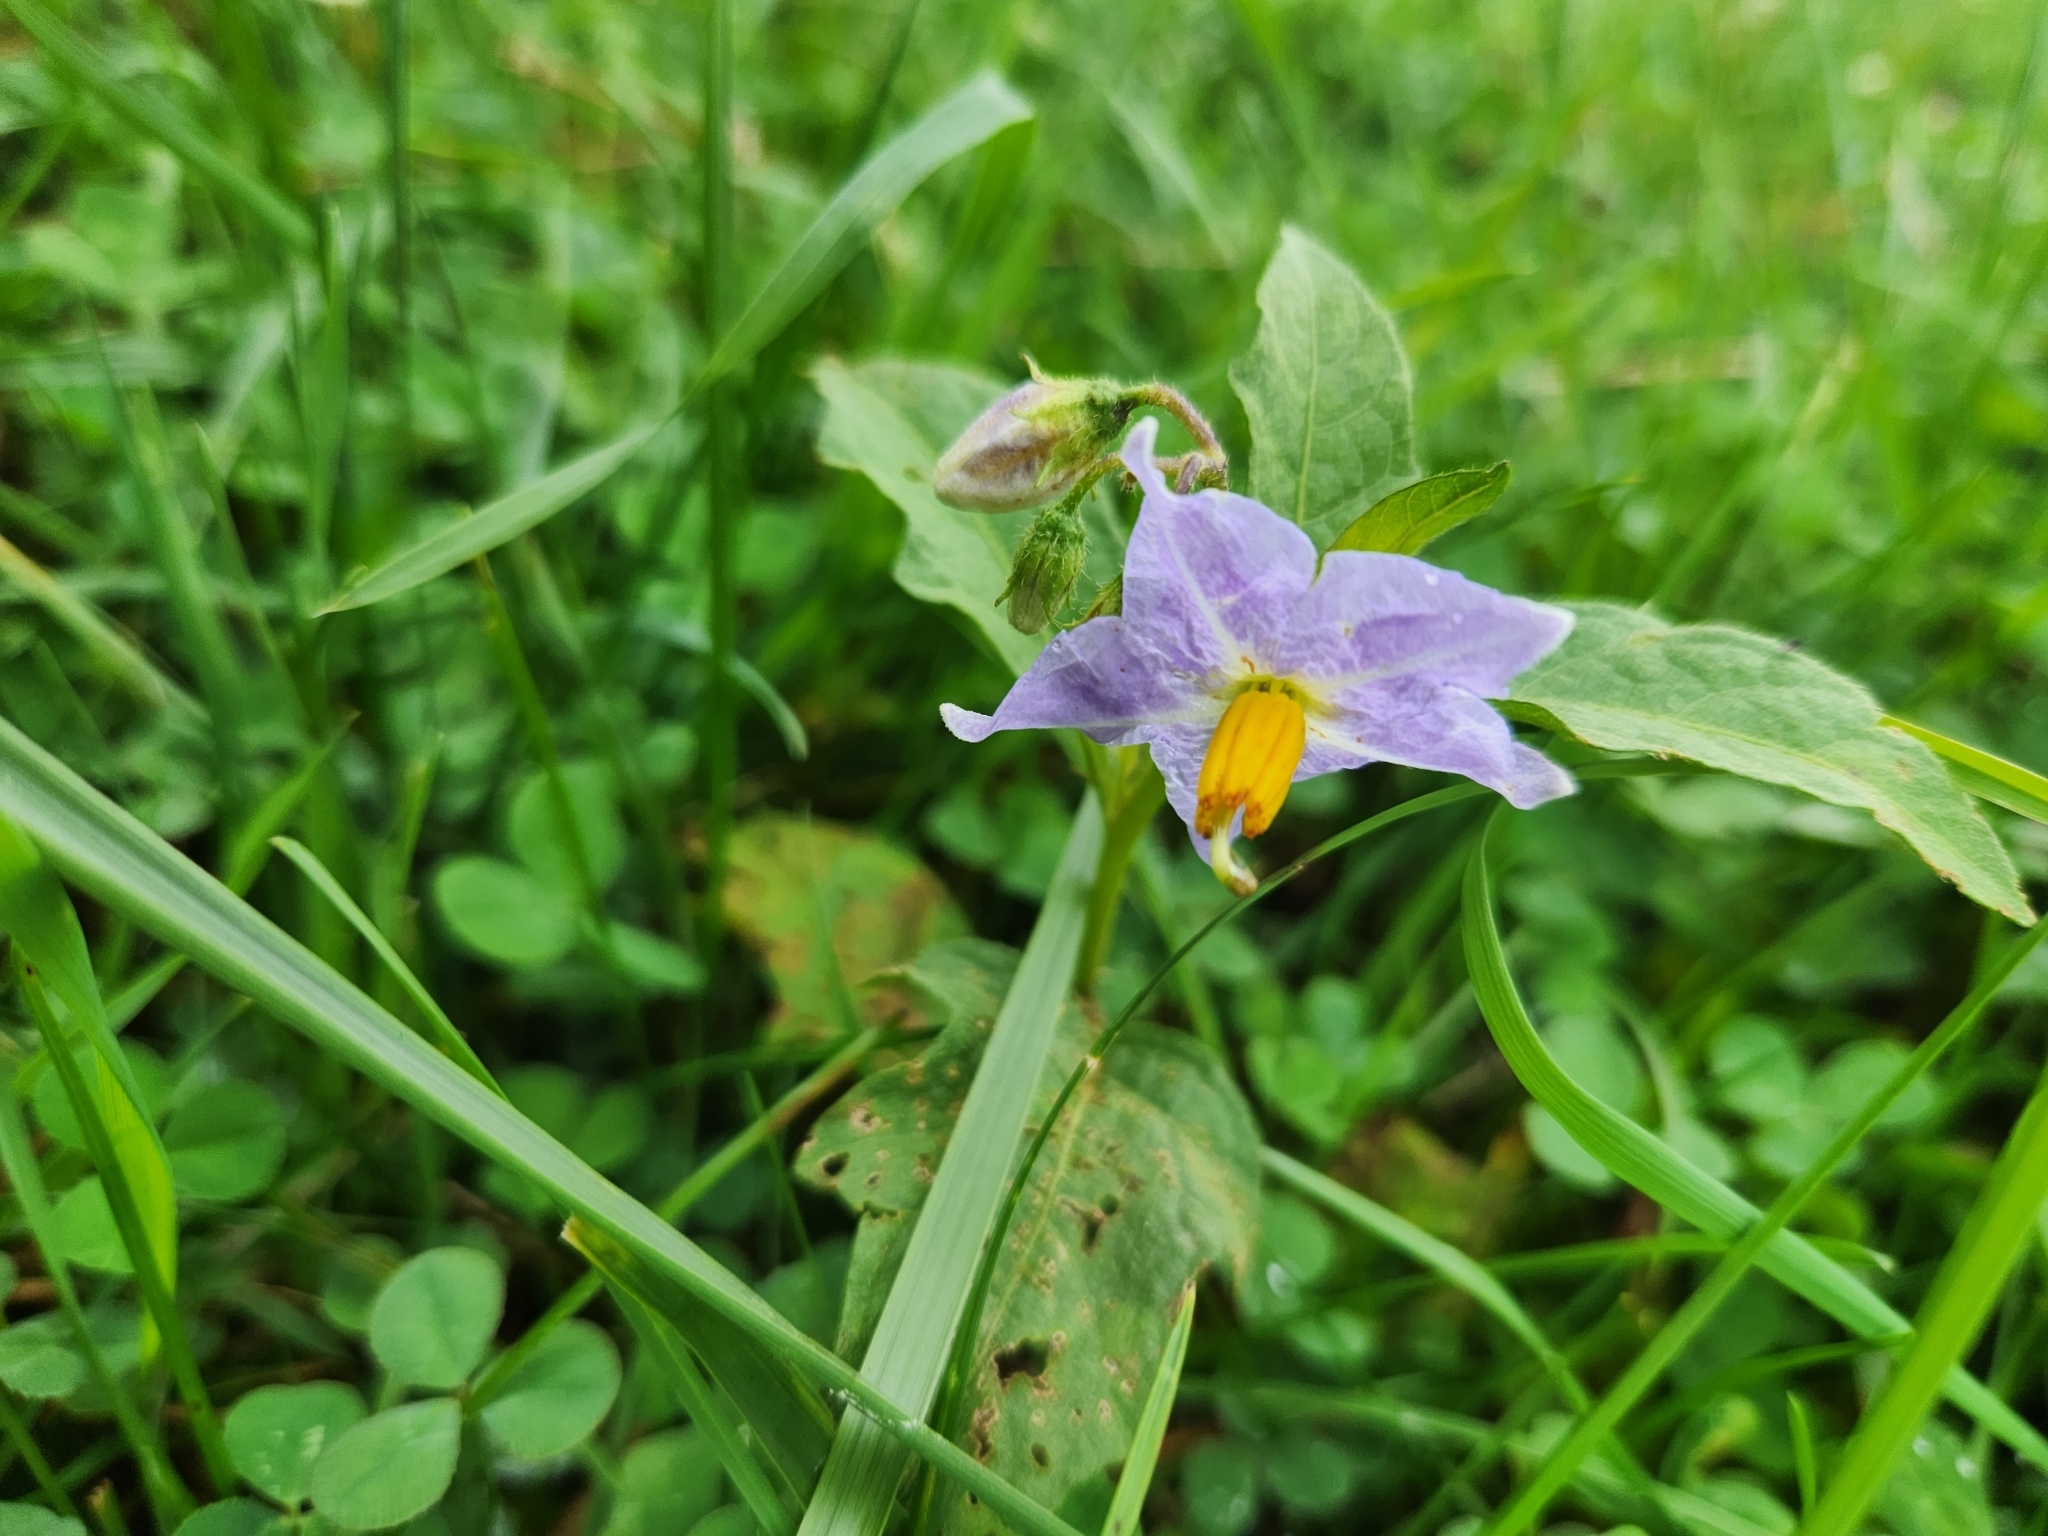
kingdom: Plantae
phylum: Tracheophyta
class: Magnoliopsida
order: Solanales
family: Solanaceae
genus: Solanum
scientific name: Solanum carolinense
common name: Horse-nettle
